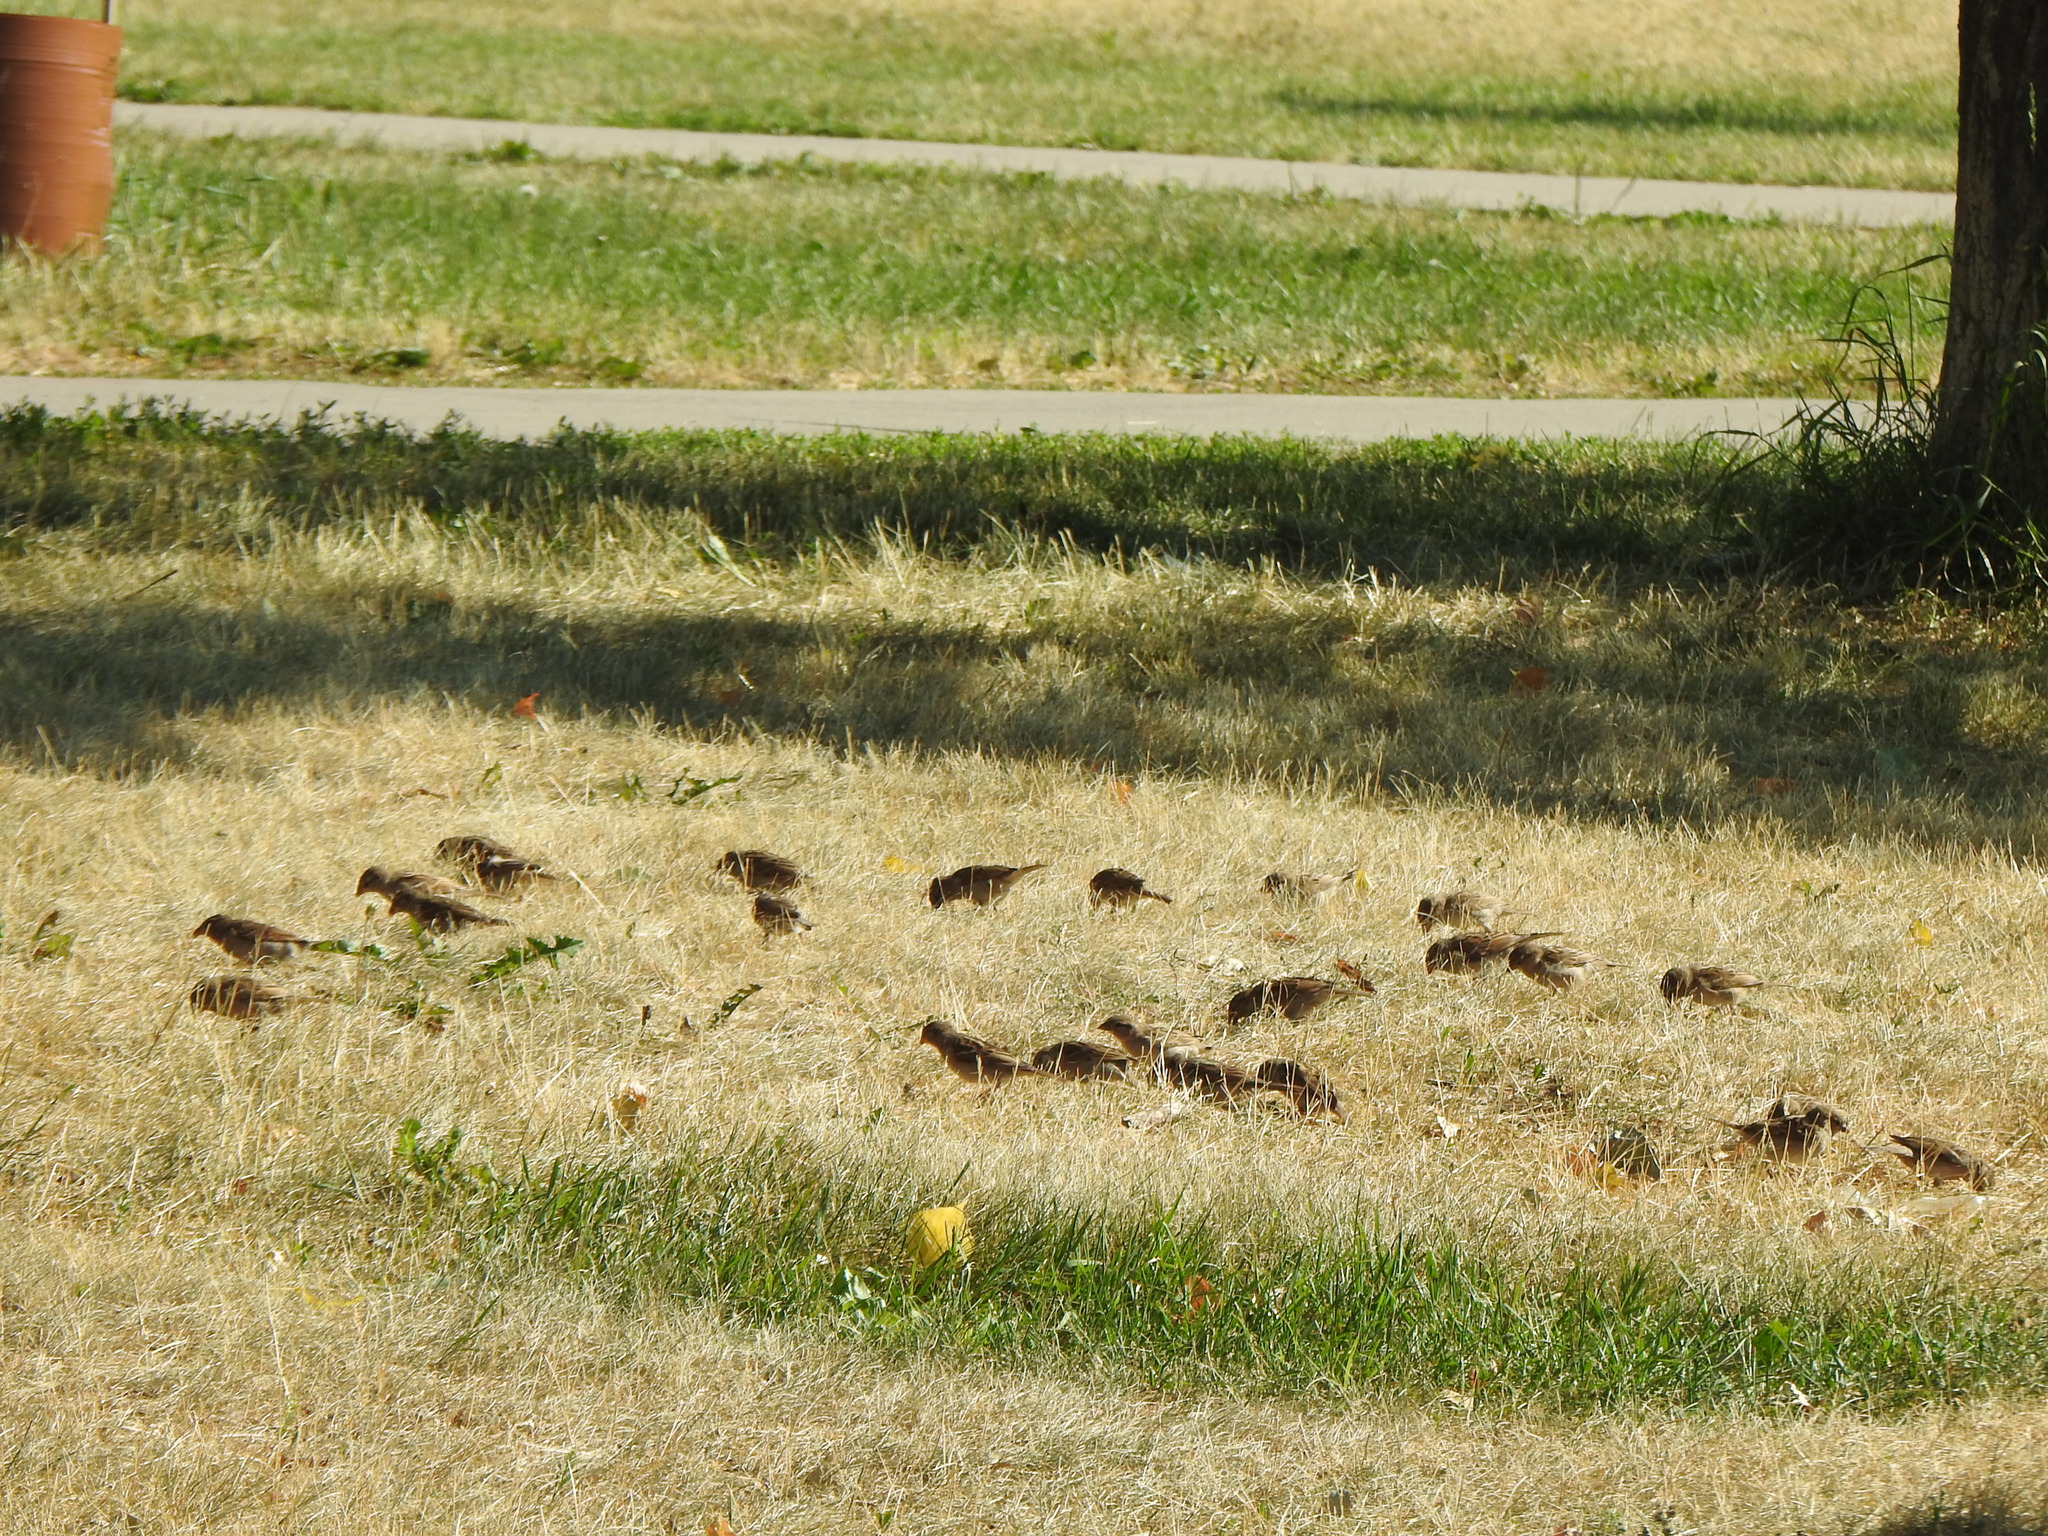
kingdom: Animalia
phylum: Chordata
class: Aves
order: Passeriformes
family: Passeridae
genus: Passer
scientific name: Passer domesticus
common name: House sparrow
